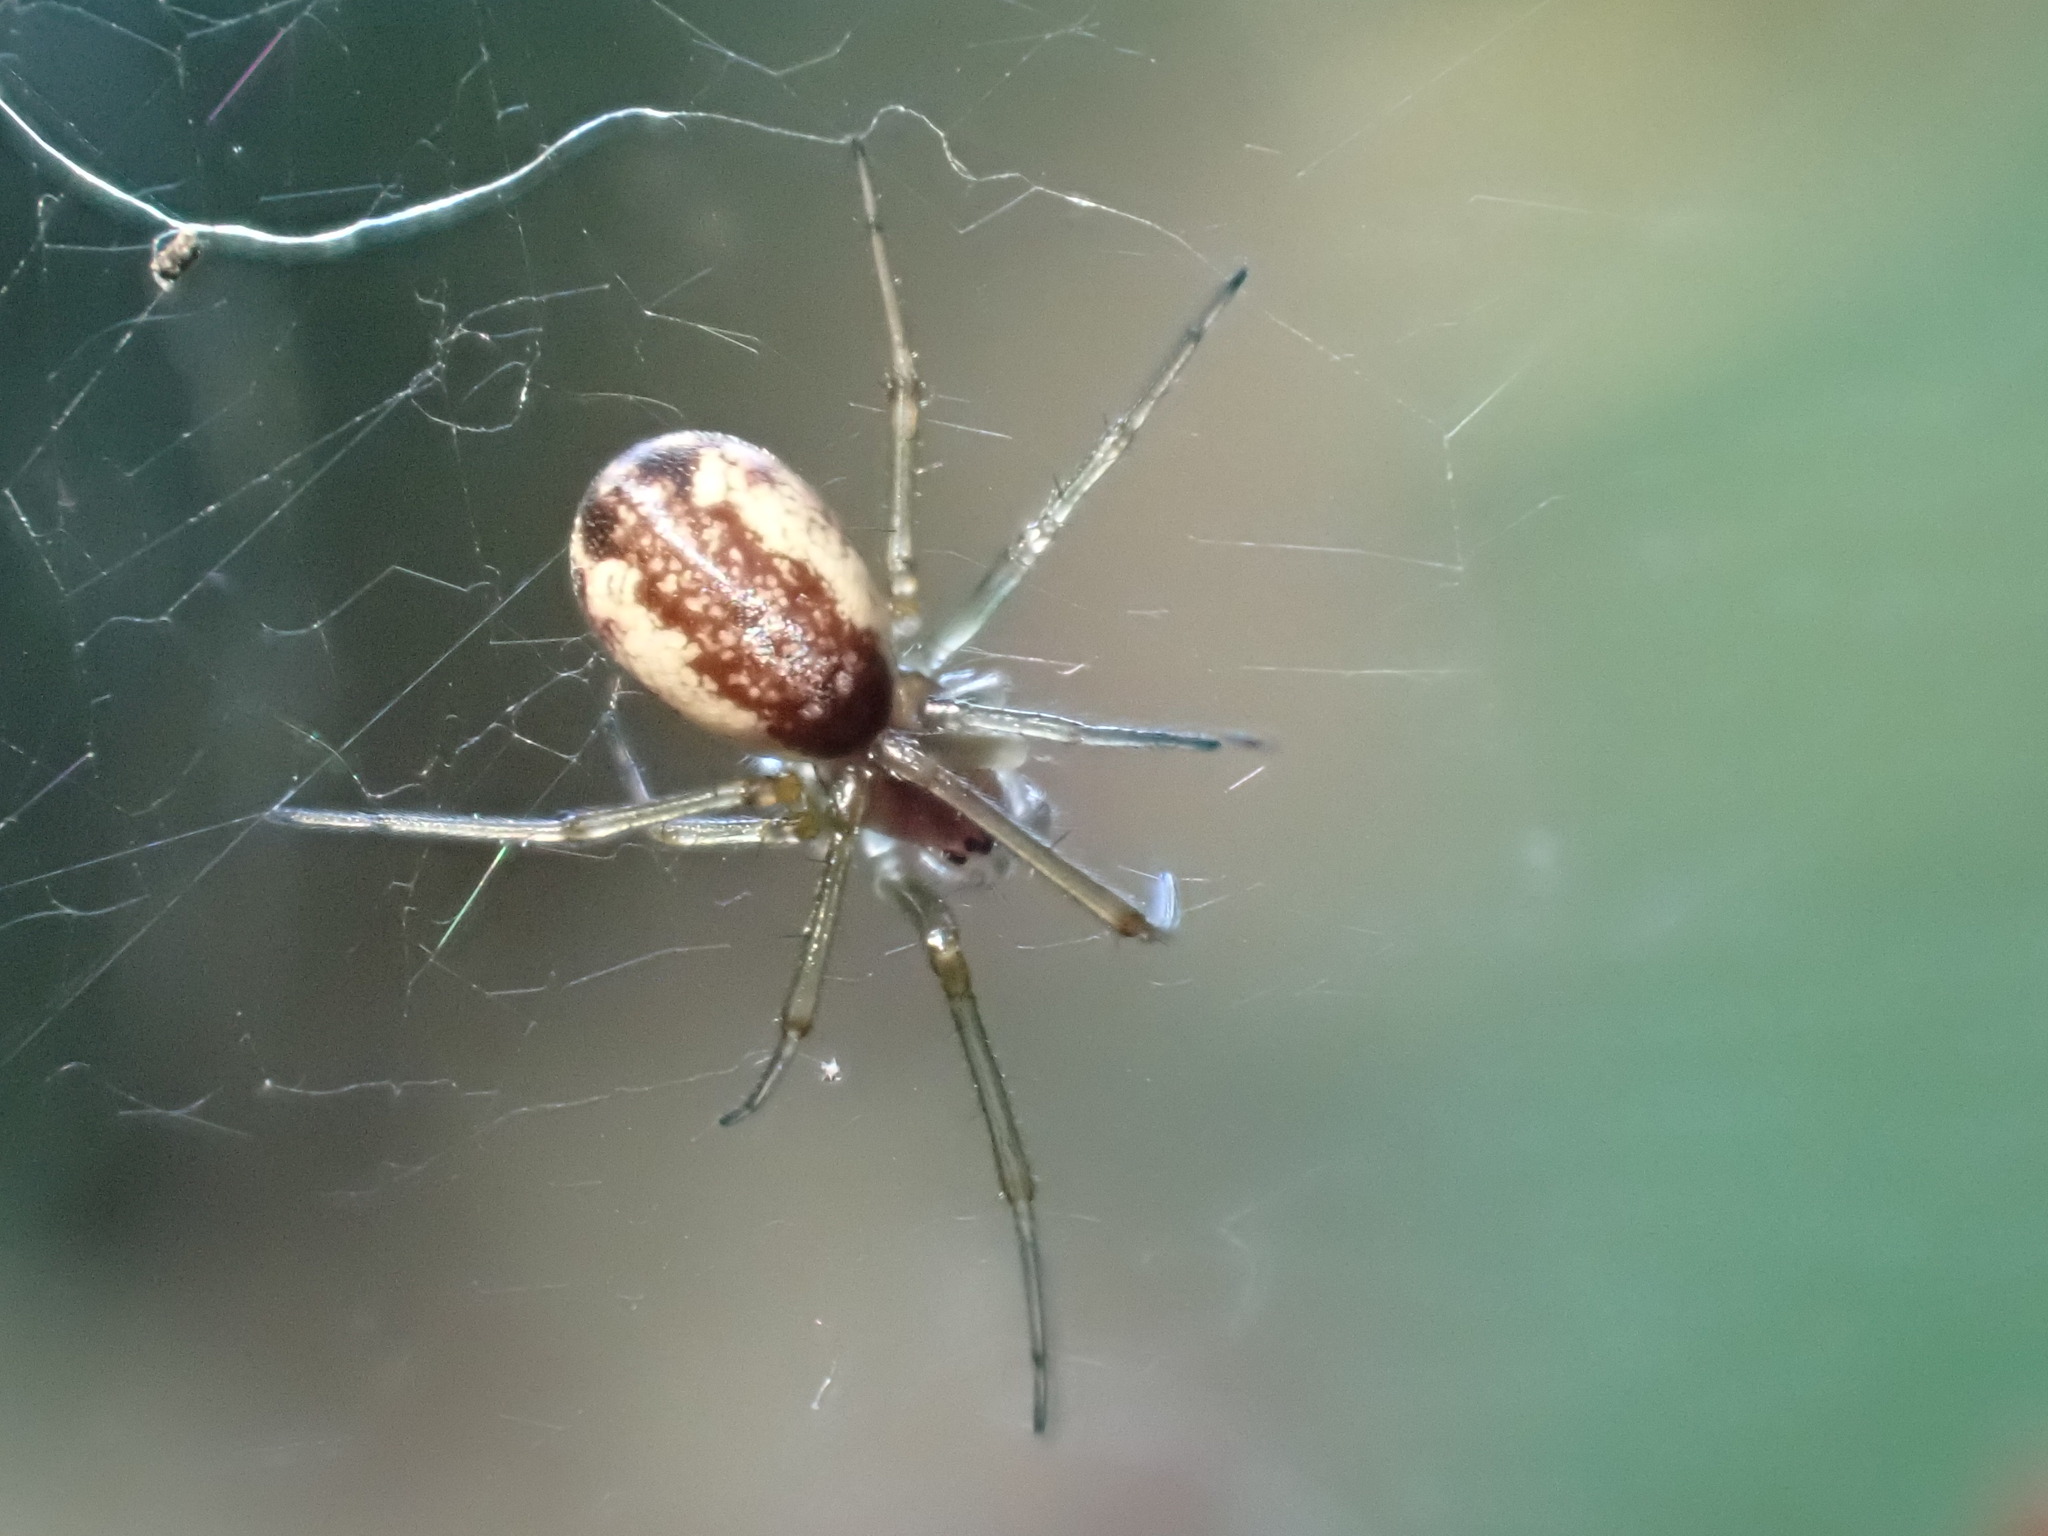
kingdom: Animalia
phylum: Arthropoda
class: Arachnida
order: Araneae
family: Linyphiidae
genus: Neriene
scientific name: Neriene peltata
